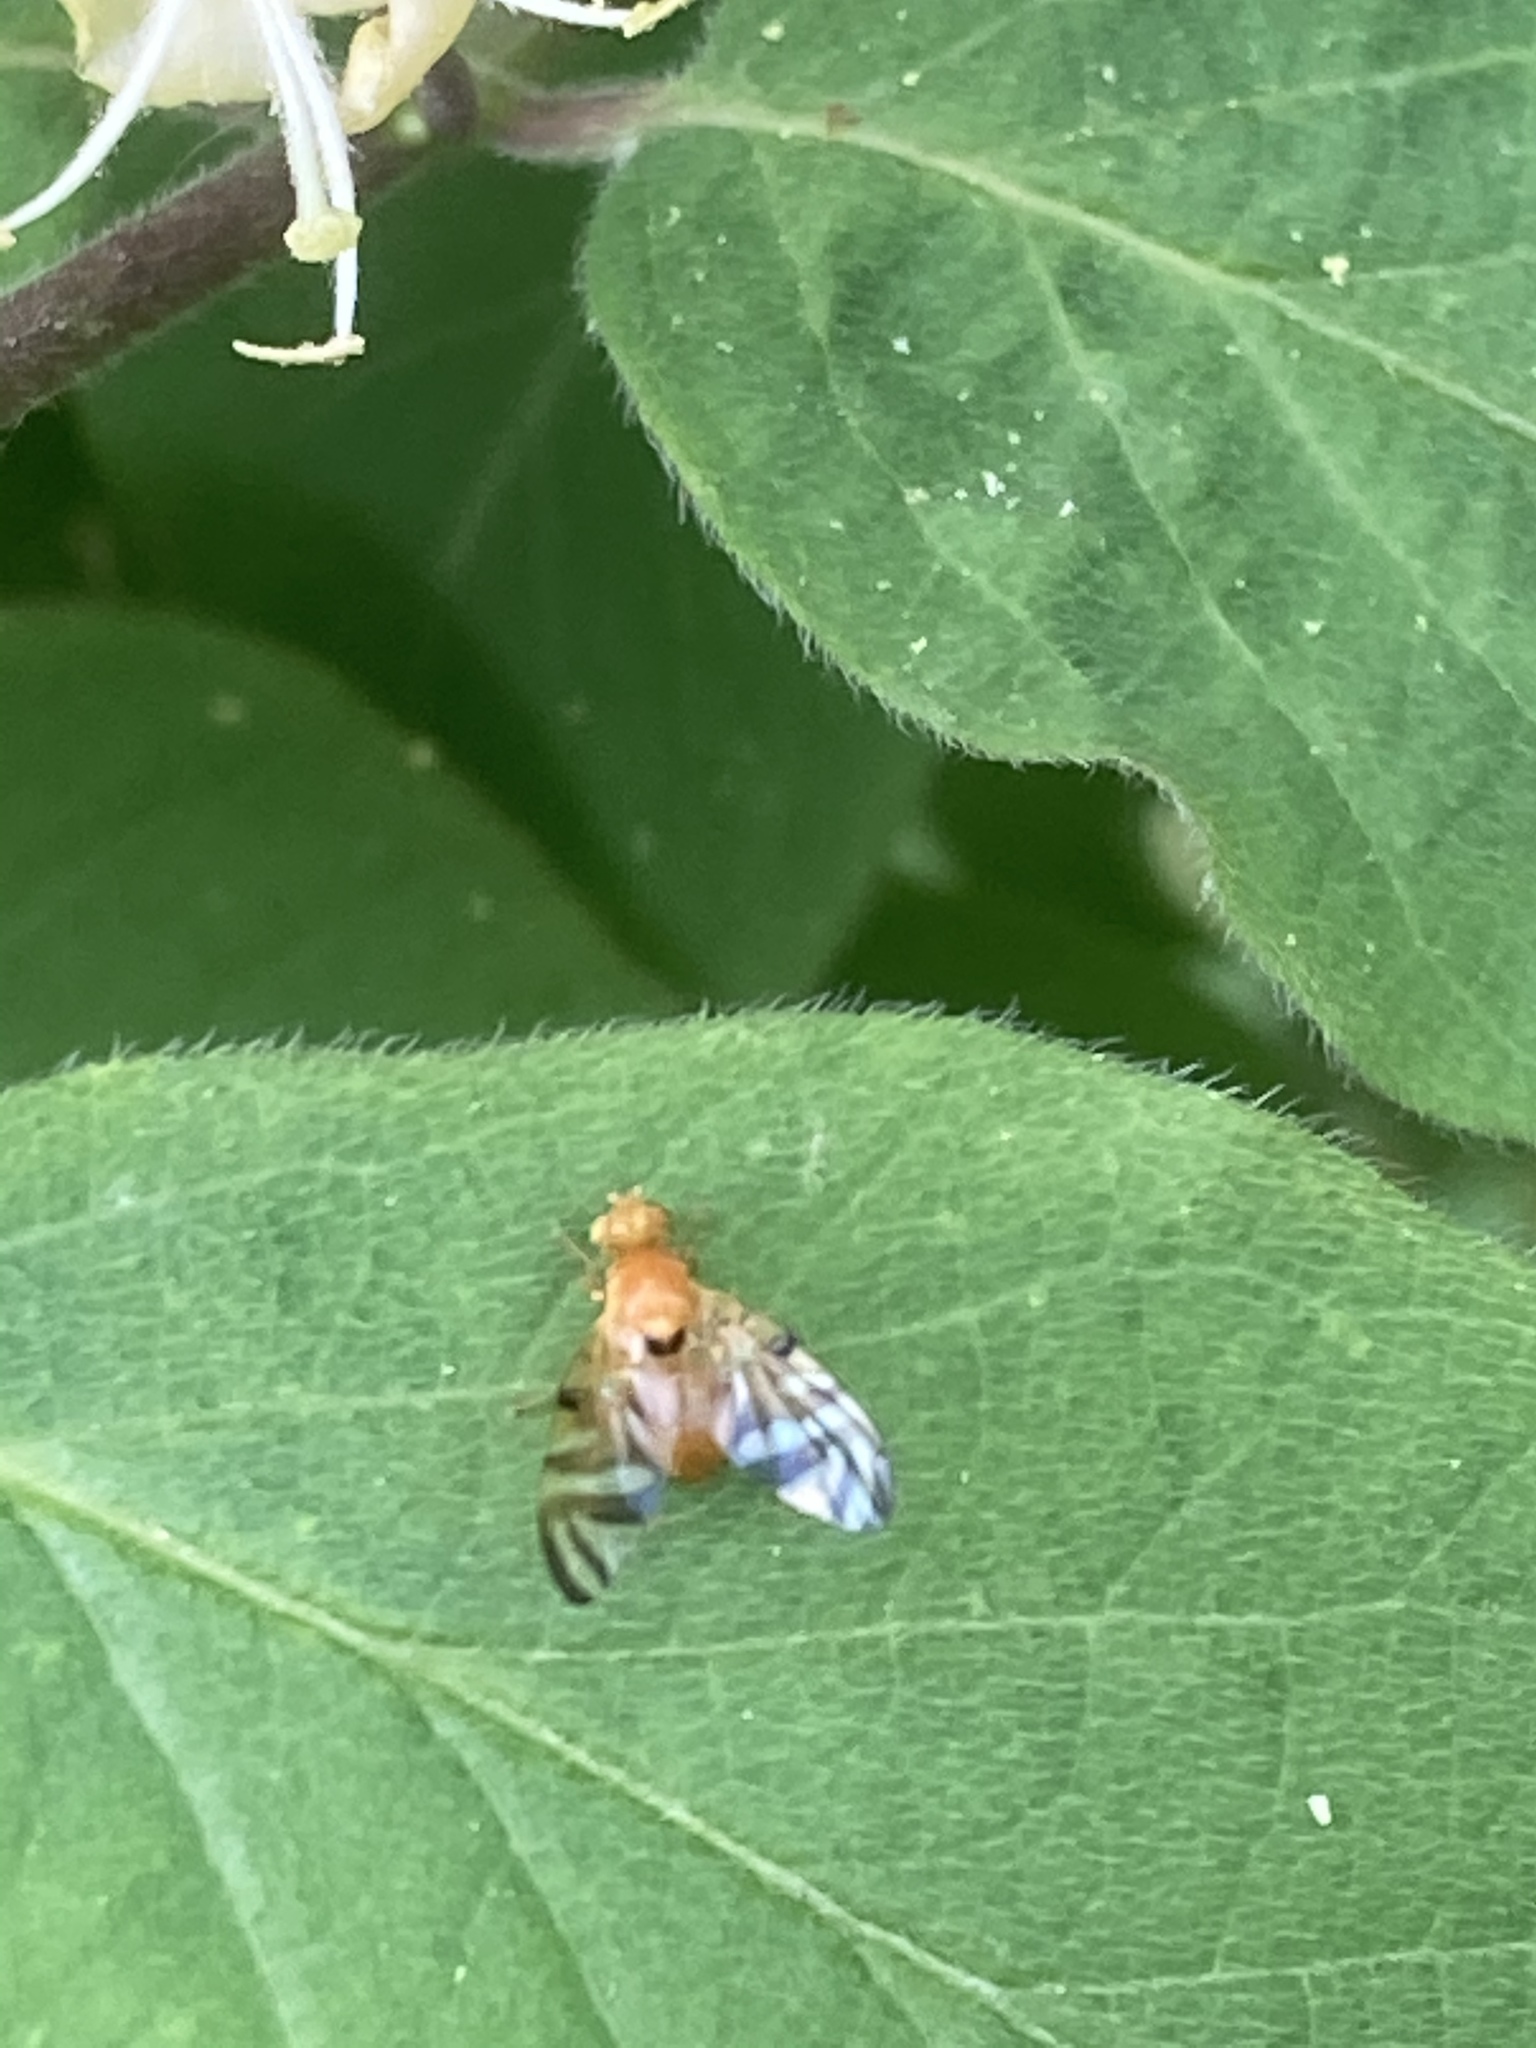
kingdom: Animalia
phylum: Arthropoda
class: Insecta
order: Diptera
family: Tephritidae
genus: Myoleja
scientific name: Myoleja lucida
